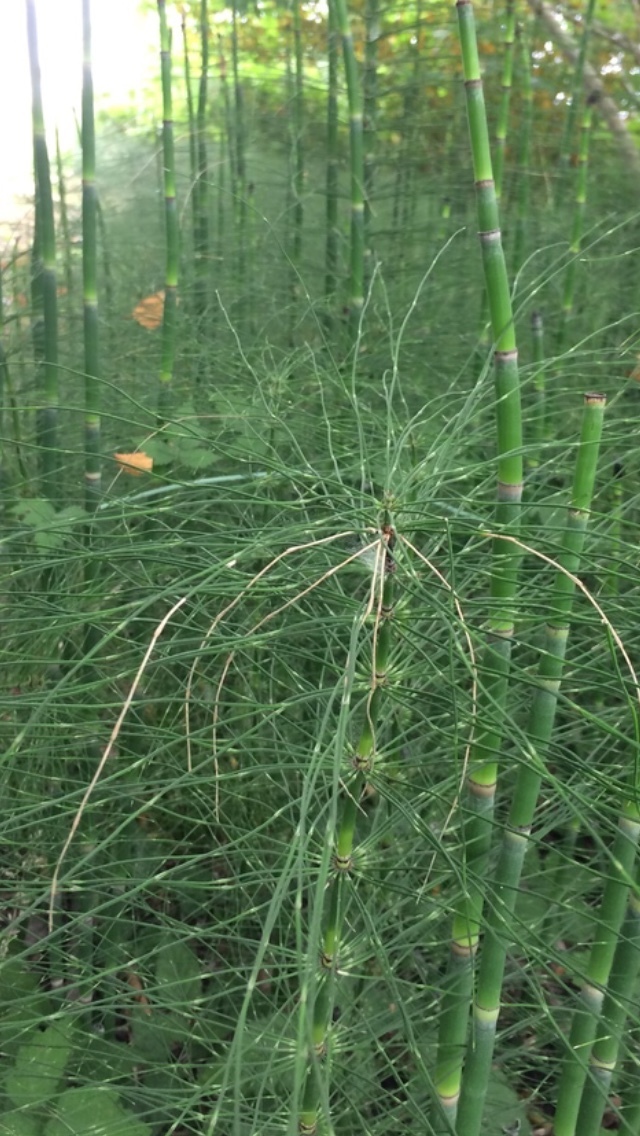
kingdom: Plantae
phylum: Tracheophyta
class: Polypodiopsida
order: Equisetales
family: Equisetaceae
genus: Equisetum
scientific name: Equisetum braunii
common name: Braun's horsetail
